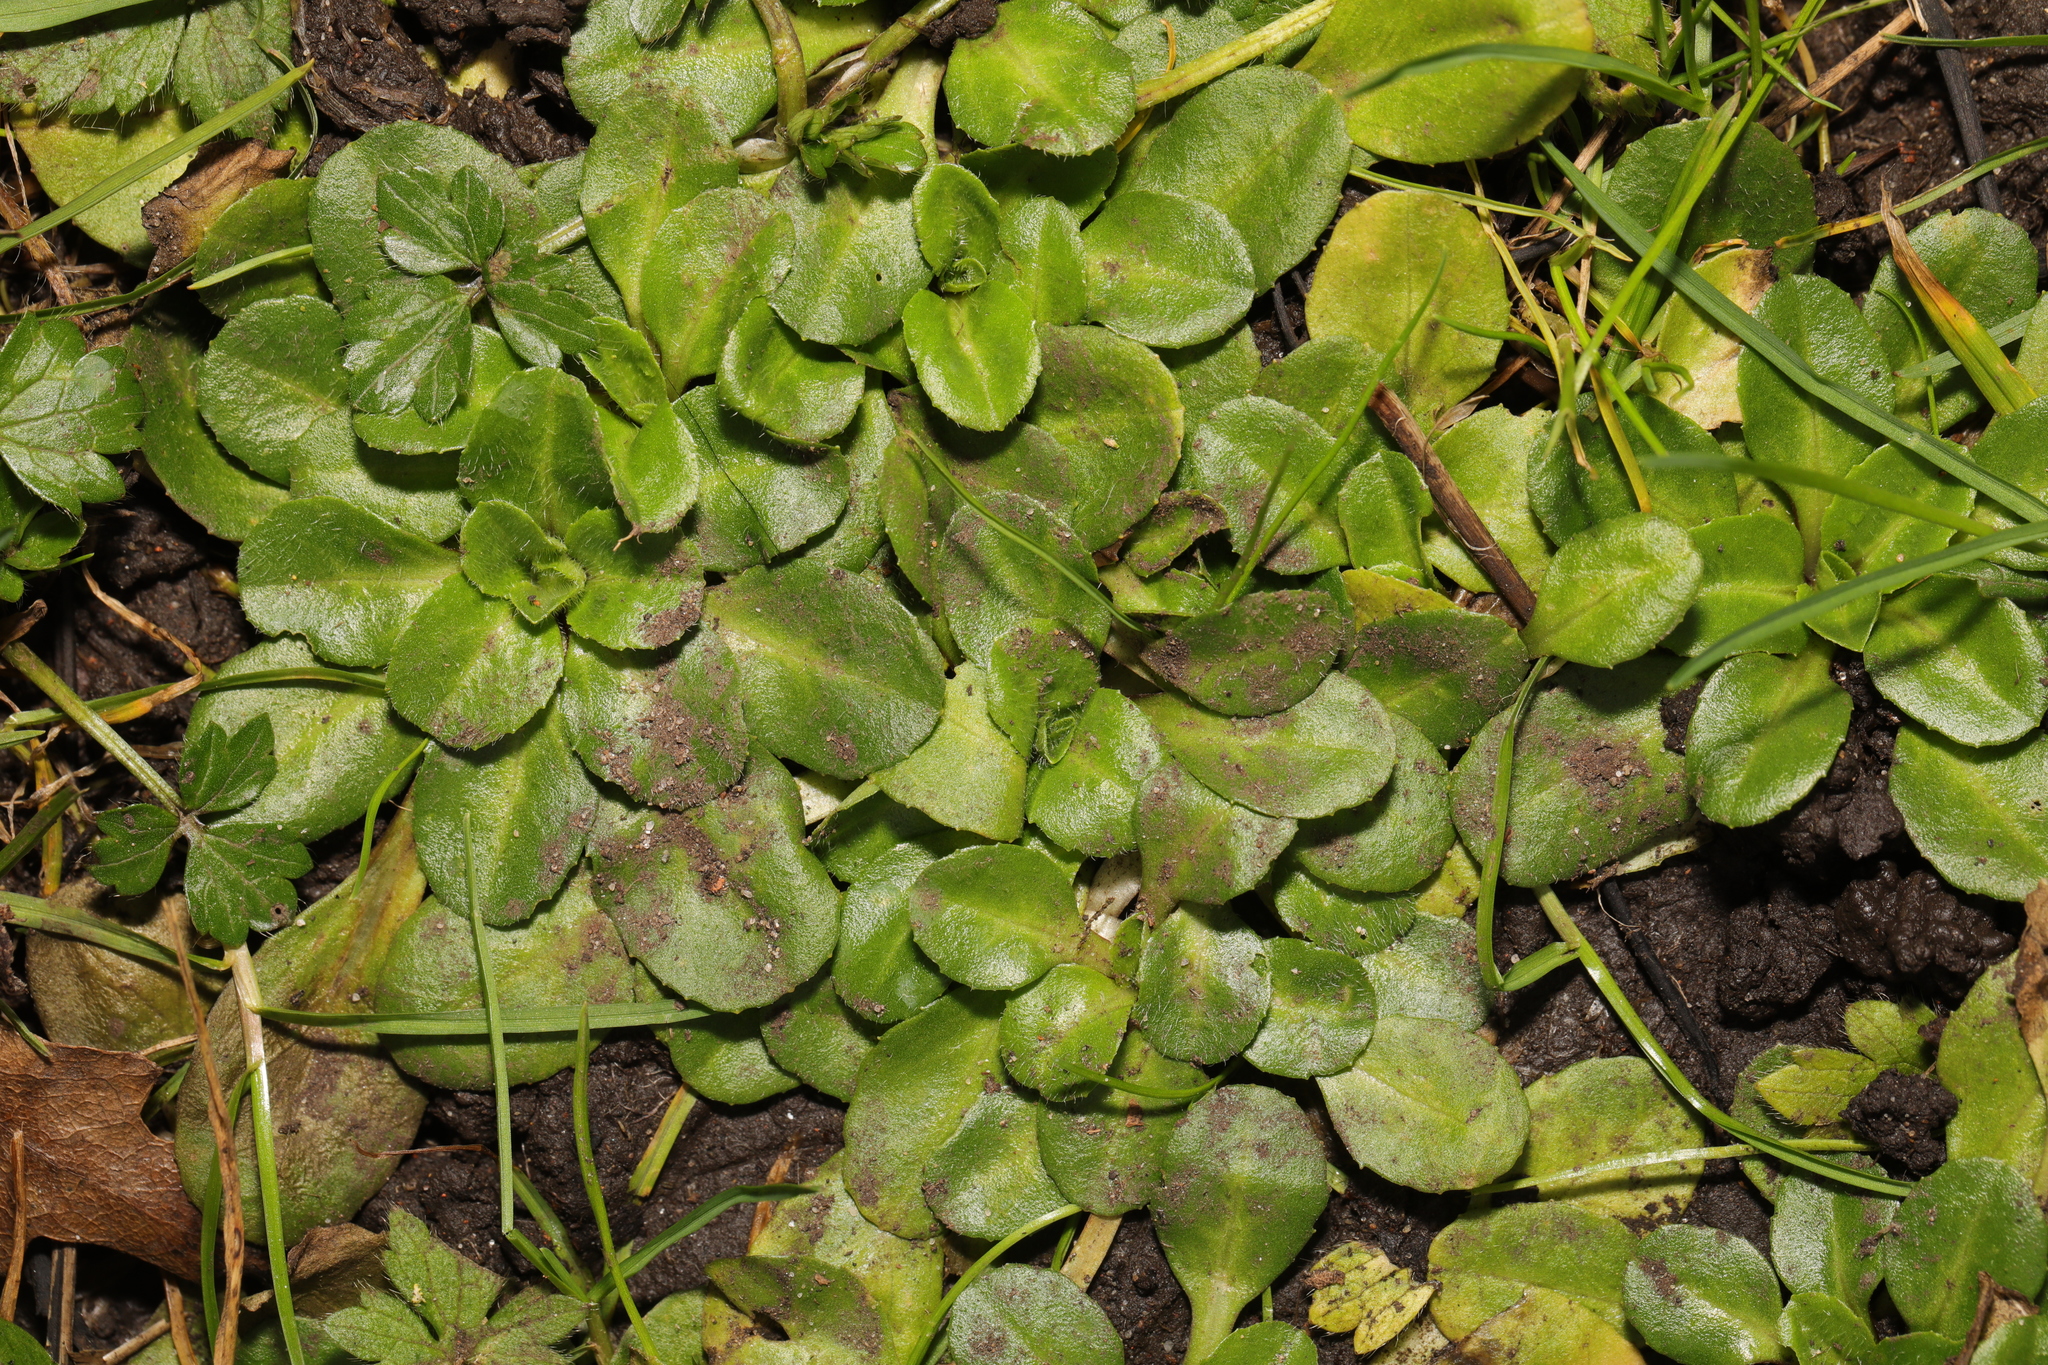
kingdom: Plantae
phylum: Tracheophyta
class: Magnoliopsida
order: Asterales
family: Asteraceae
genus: Bellis
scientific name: Bellis perennis
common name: Lawndaisy
